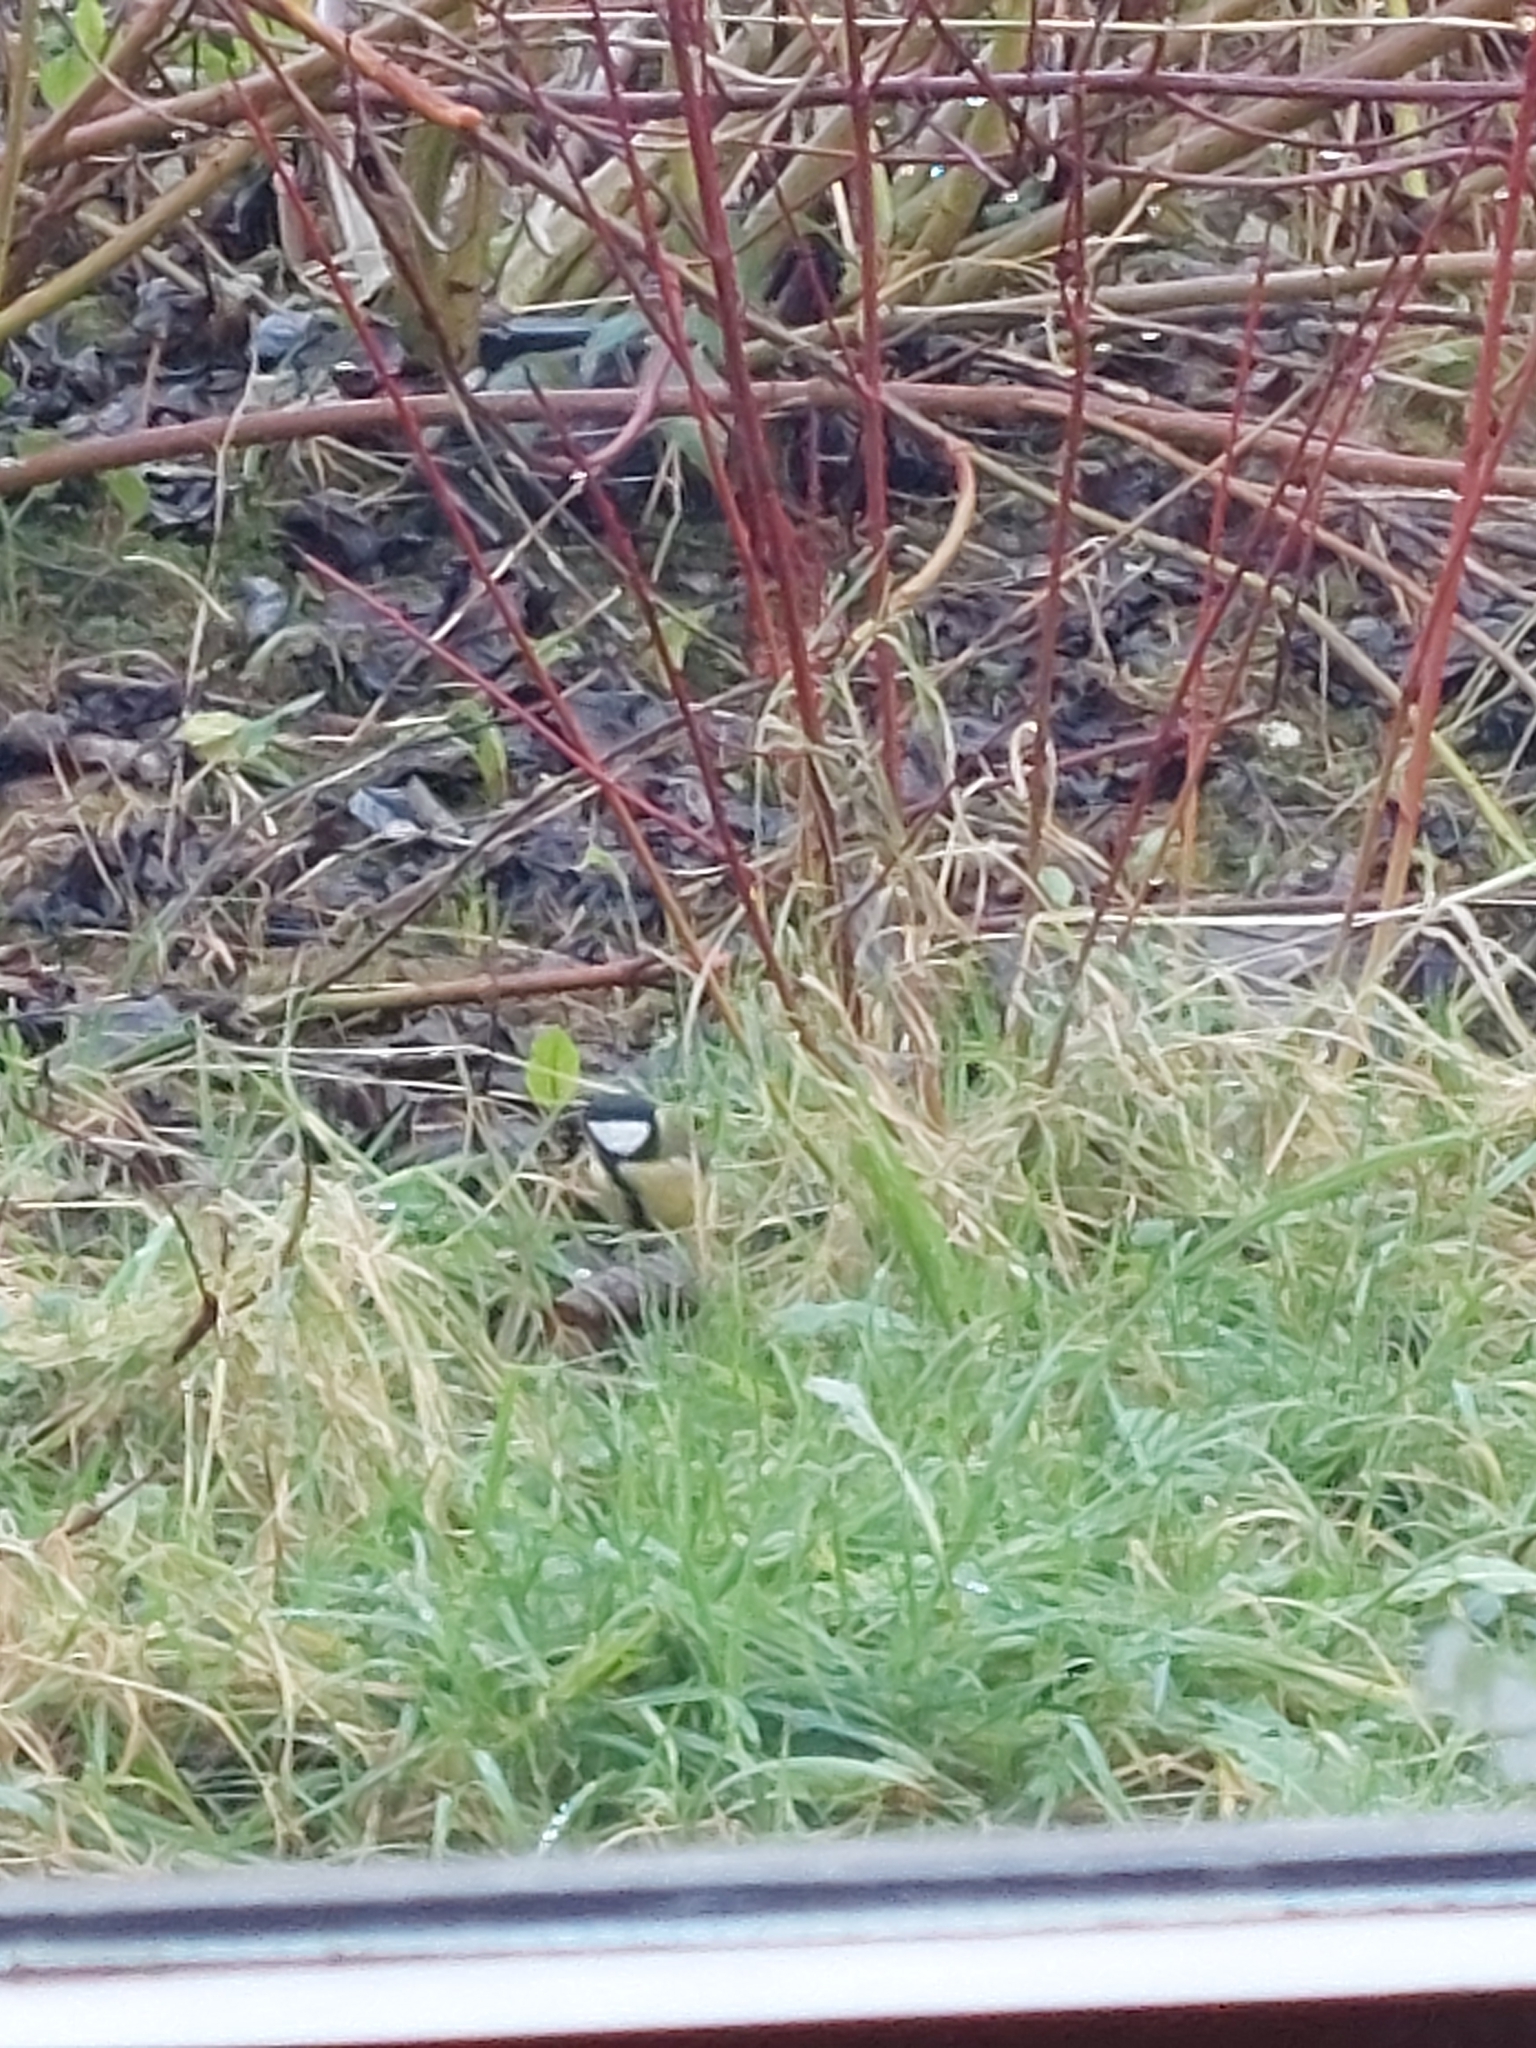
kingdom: Animalia
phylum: Chordata
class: Aves
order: Passeriformes
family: Paridae
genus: Parus
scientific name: Parus major
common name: Great tit
